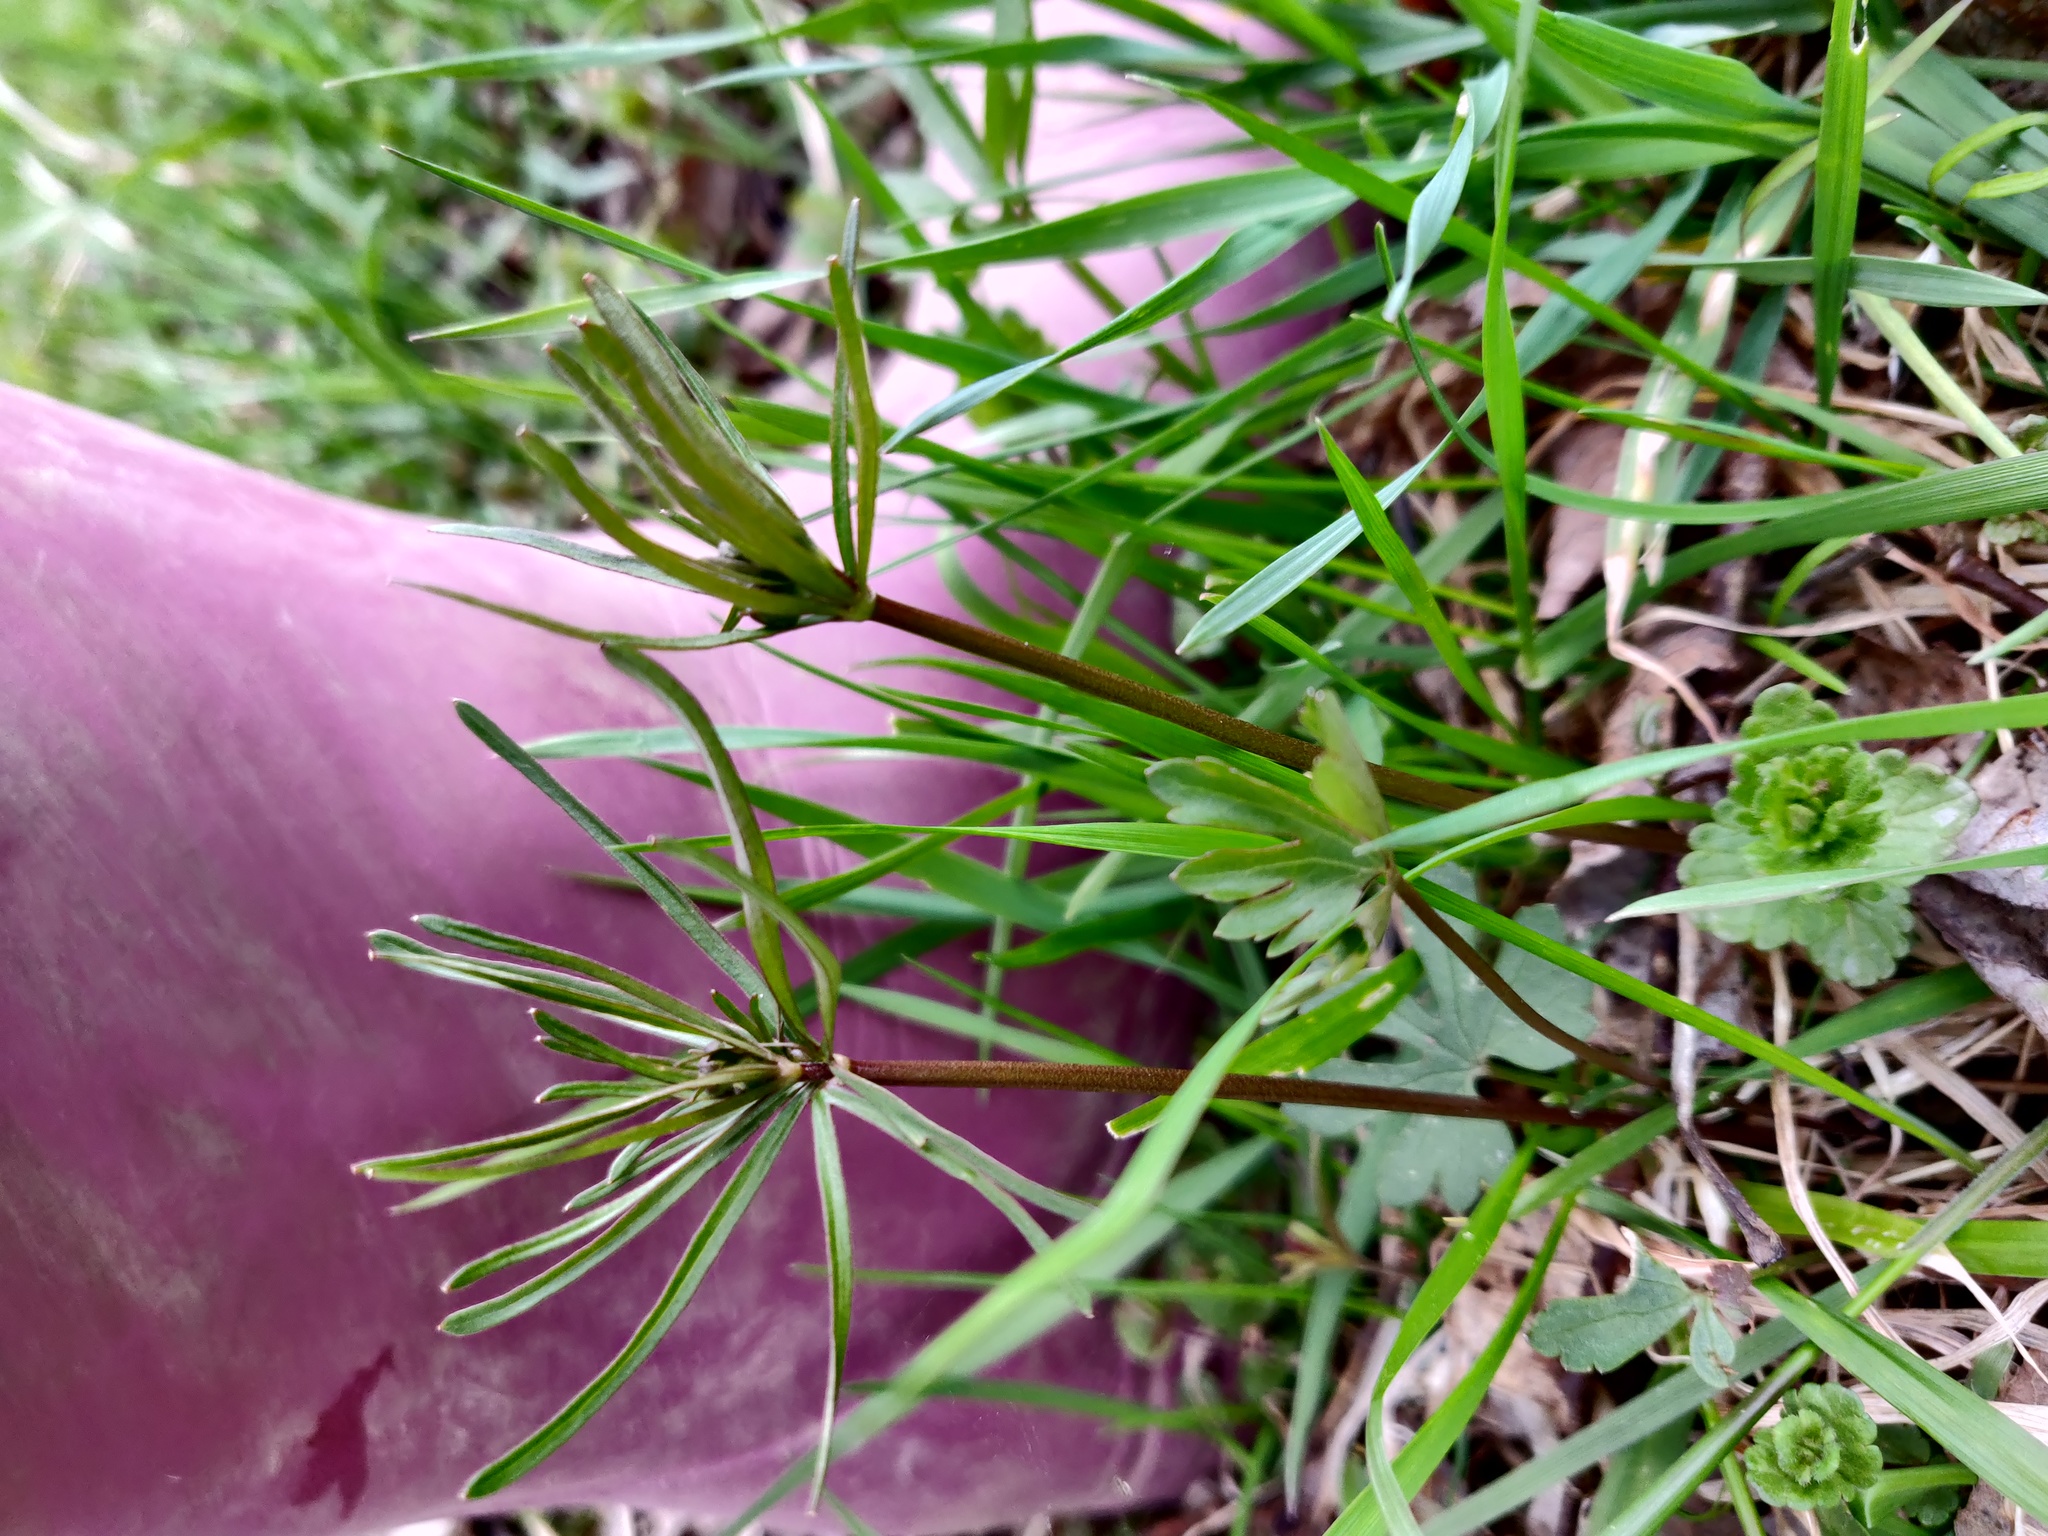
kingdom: Plantae
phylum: Tracheophyta
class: Magnoliopsida
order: Ranunculales
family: Ranunculaceae
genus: Ranunculus
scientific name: Ranunculus auricomus
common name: Goldilocks buttercup
